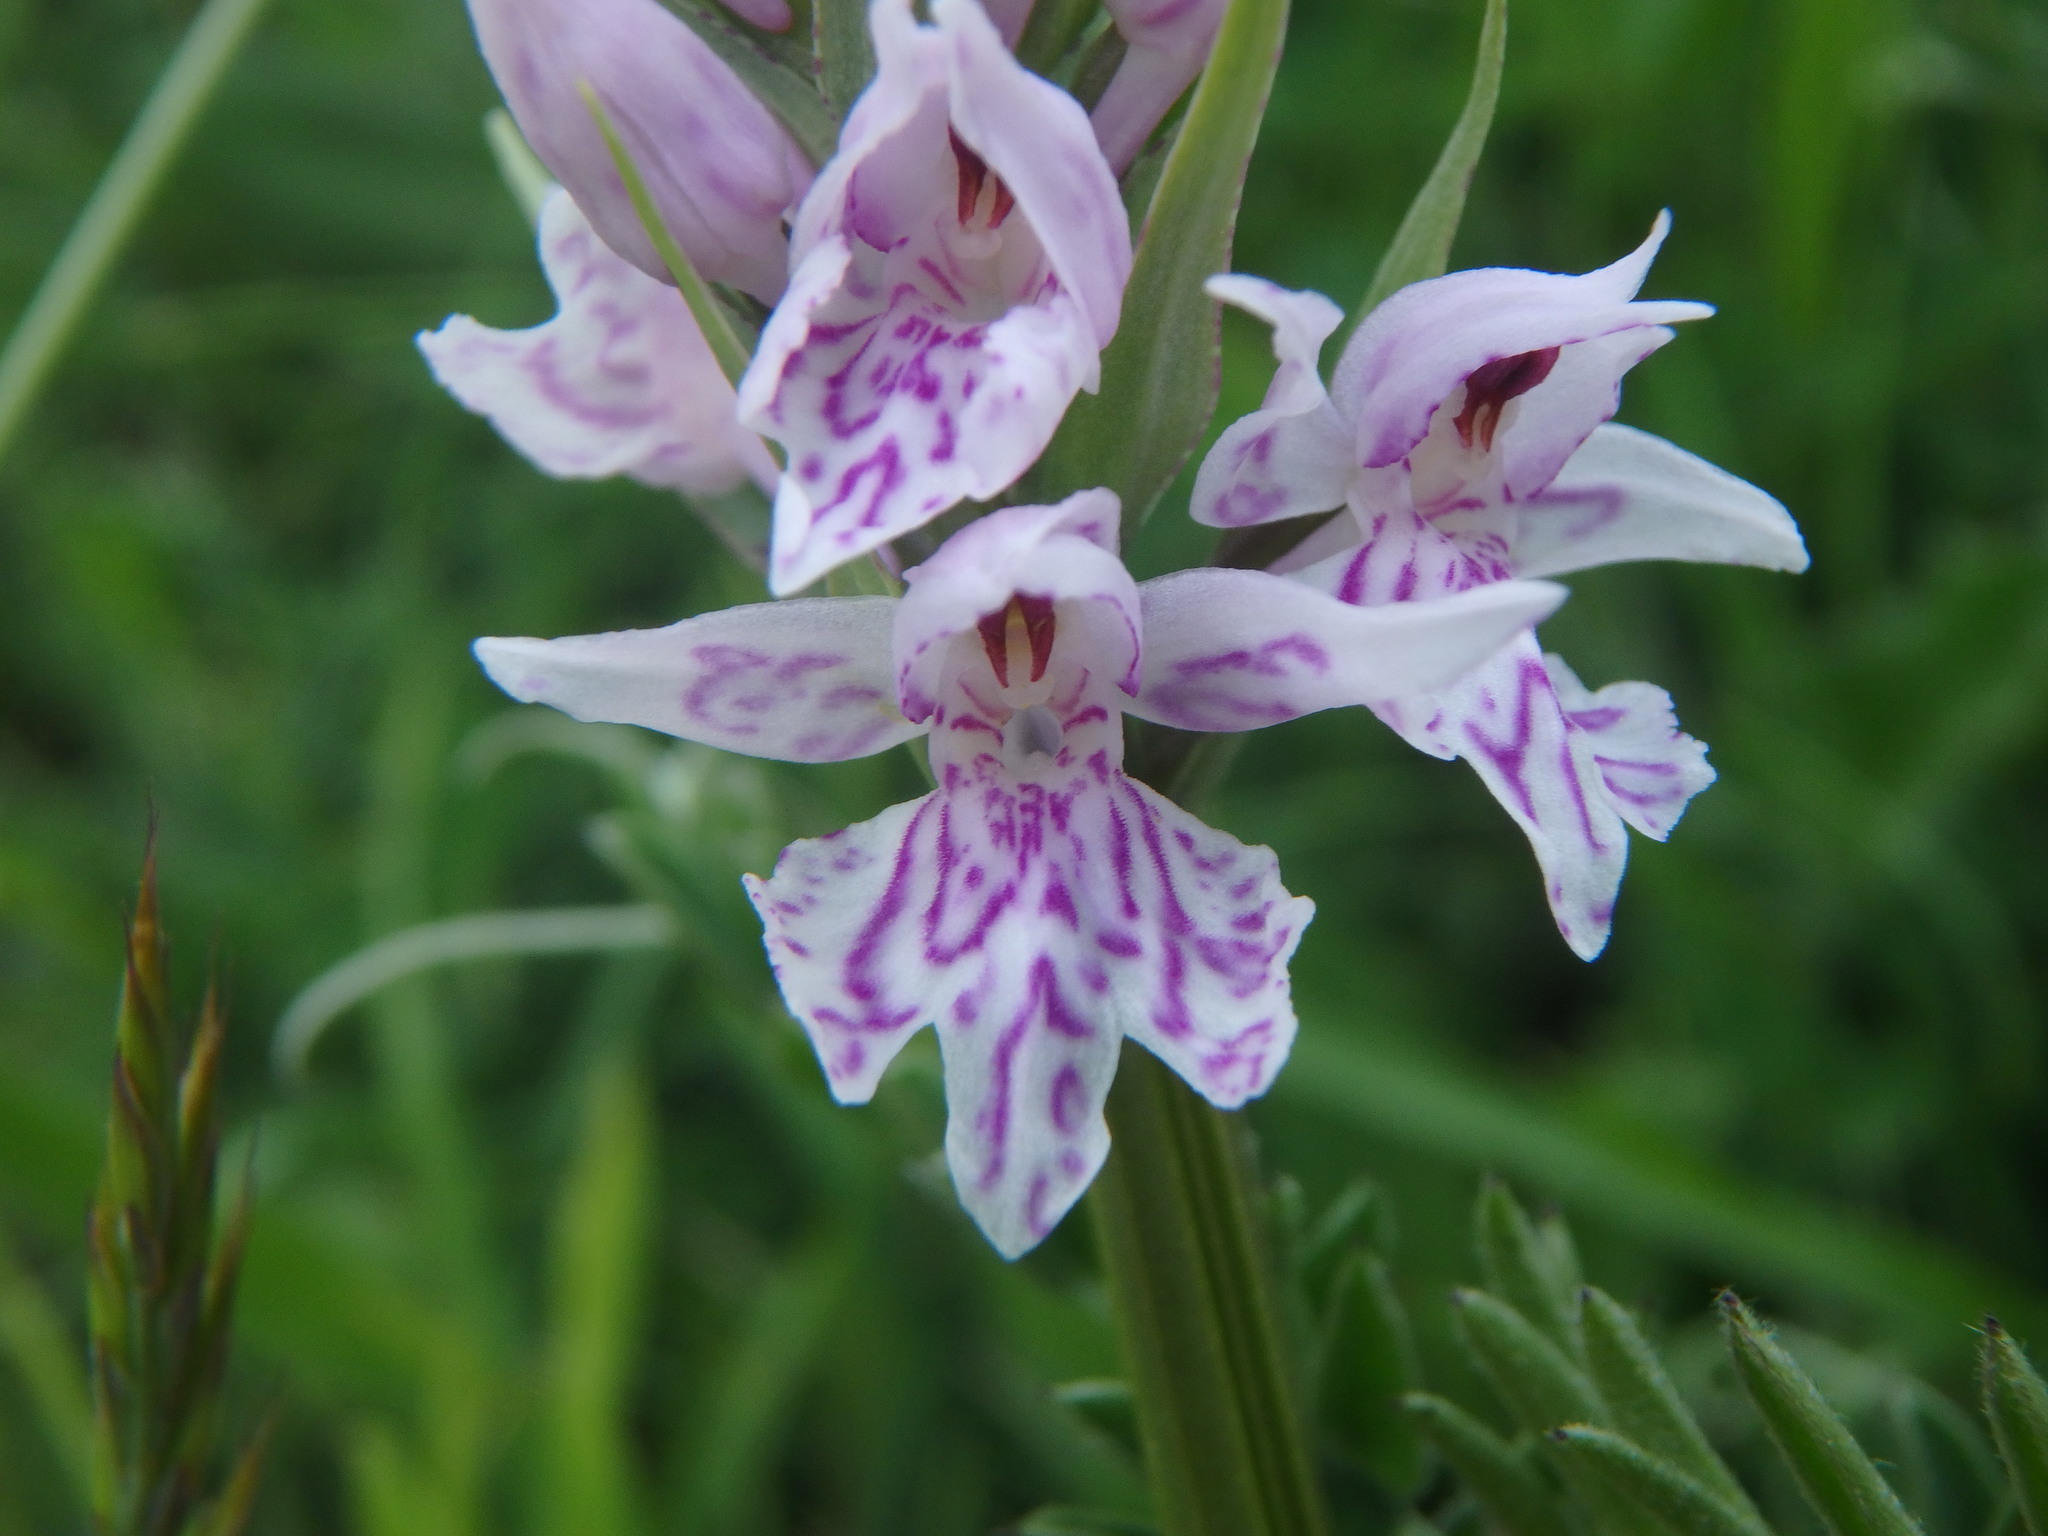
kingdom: Plantae
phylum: Tracheophyta
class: Liliopsida
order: Asparagales
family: Orchidaceae
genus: Dactylorhiza
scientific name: Dactylorhiza maculata
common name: Heath spotted-orchid
